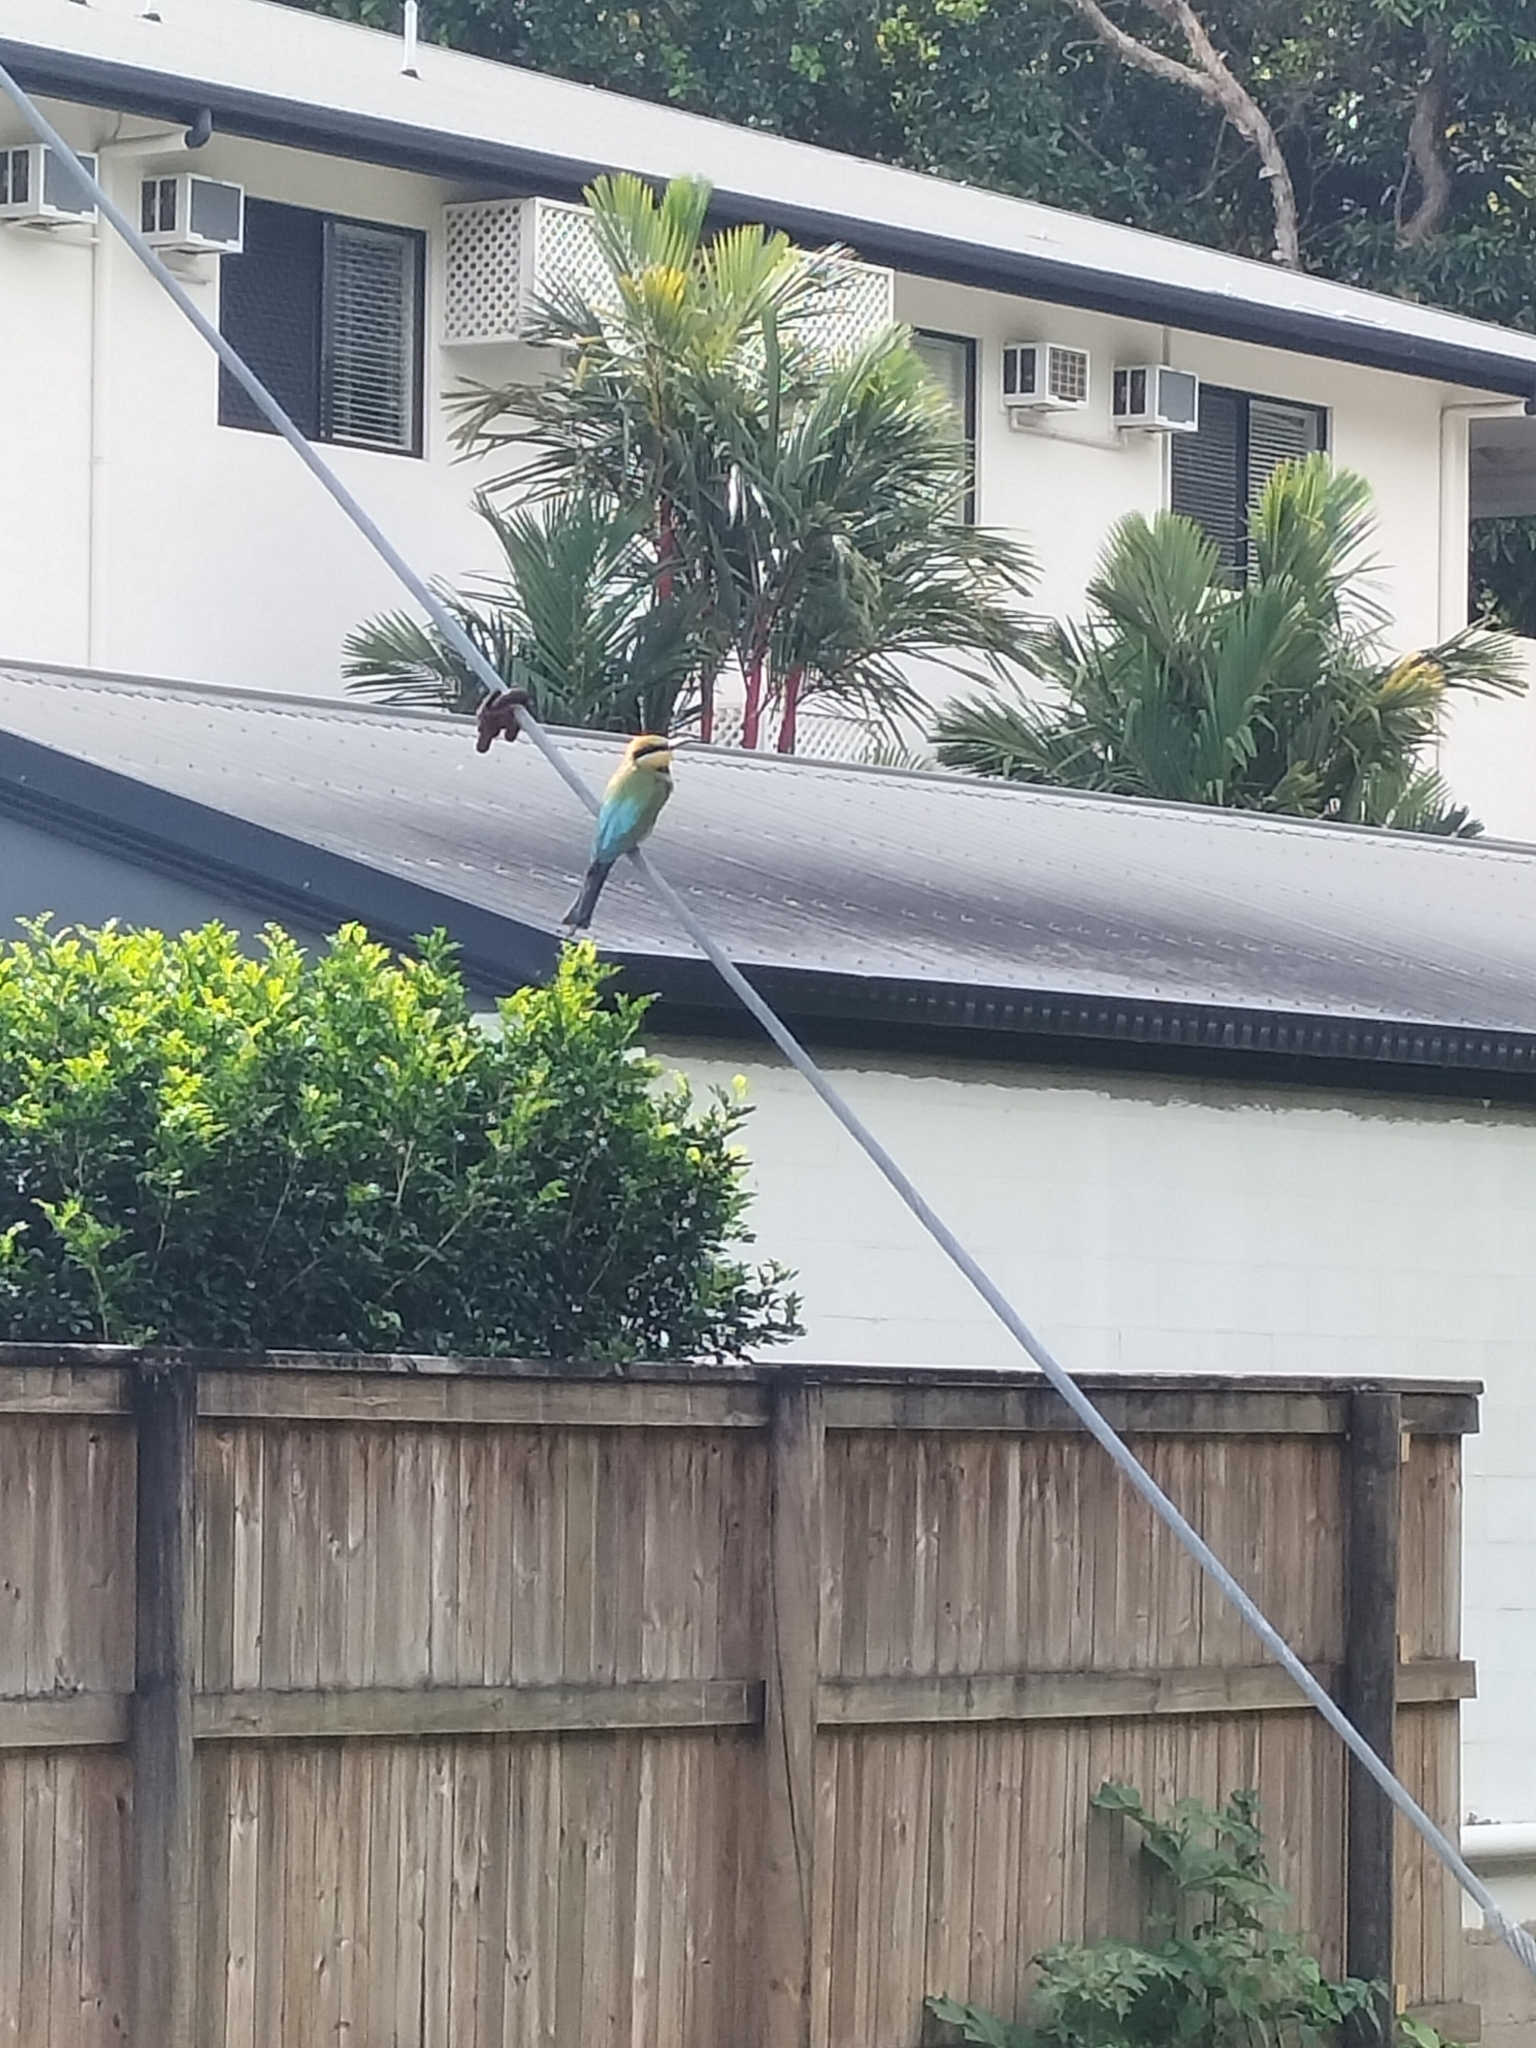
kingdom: Animalia
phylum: Chordata
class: Aves
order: Coraciiformes
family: Meropidae
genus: Merops
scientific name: Merops ornatus
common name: Rainbow bee-eater
